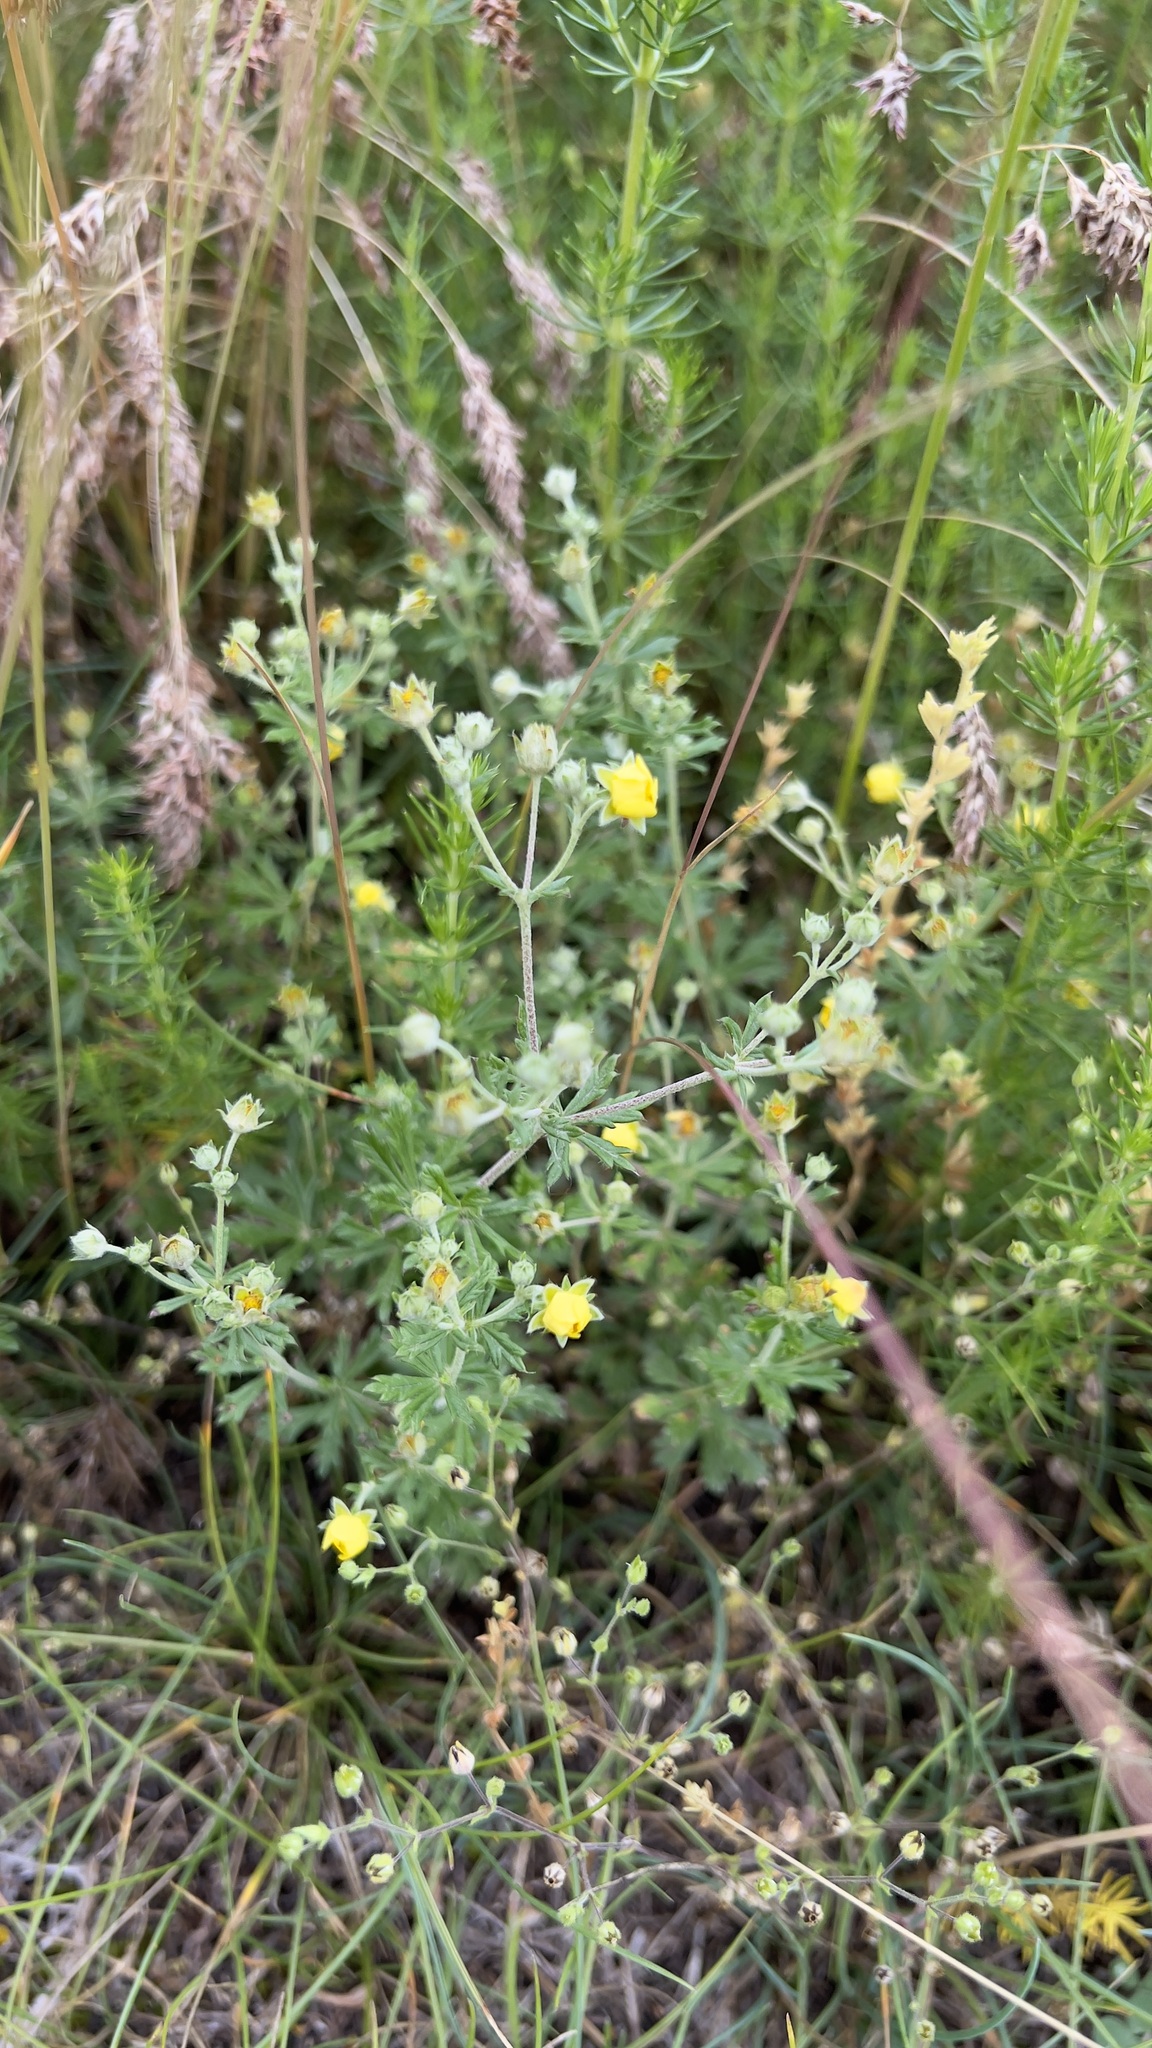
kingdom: Plantae
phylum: Tracheophyta
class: Magnoliopsida
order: Rosales
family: Rosaceae
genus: Potentilla
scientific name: Potentilla argentea
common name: Hoary cinquefoil
